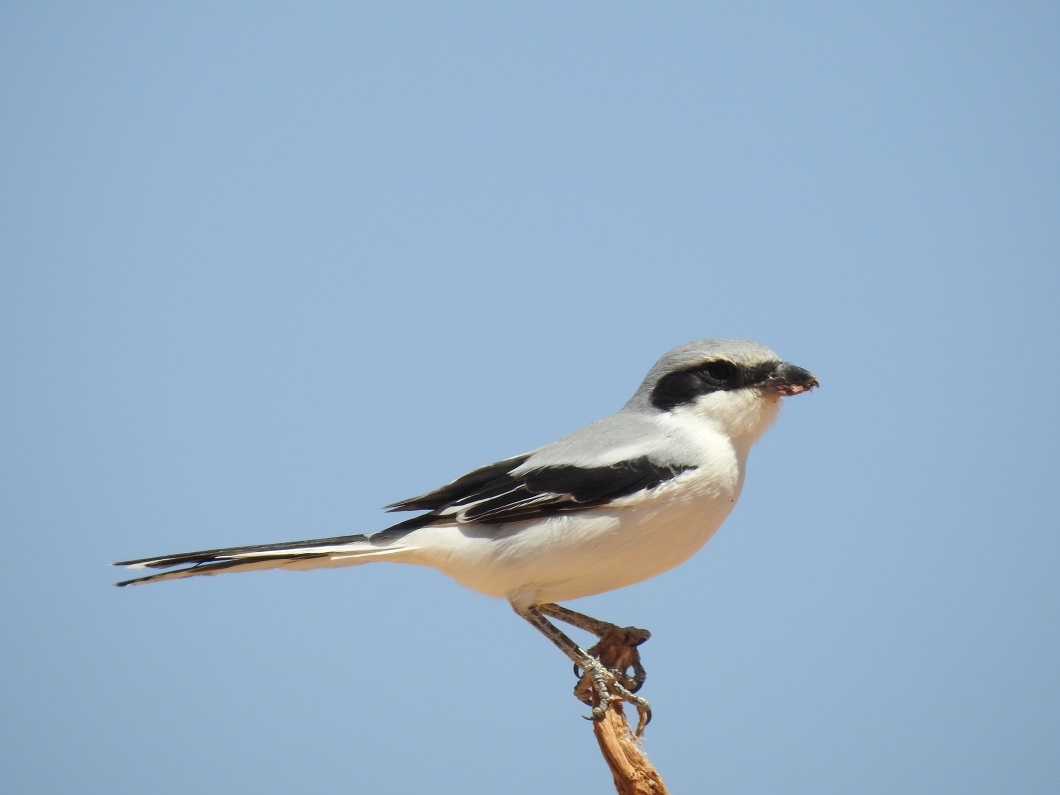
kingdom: Animalia
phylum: Chordata
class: Aves
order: Passeriformes
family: Laniidae
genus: Lanius
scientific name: Lanius excubitor
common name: Great grey shrike
